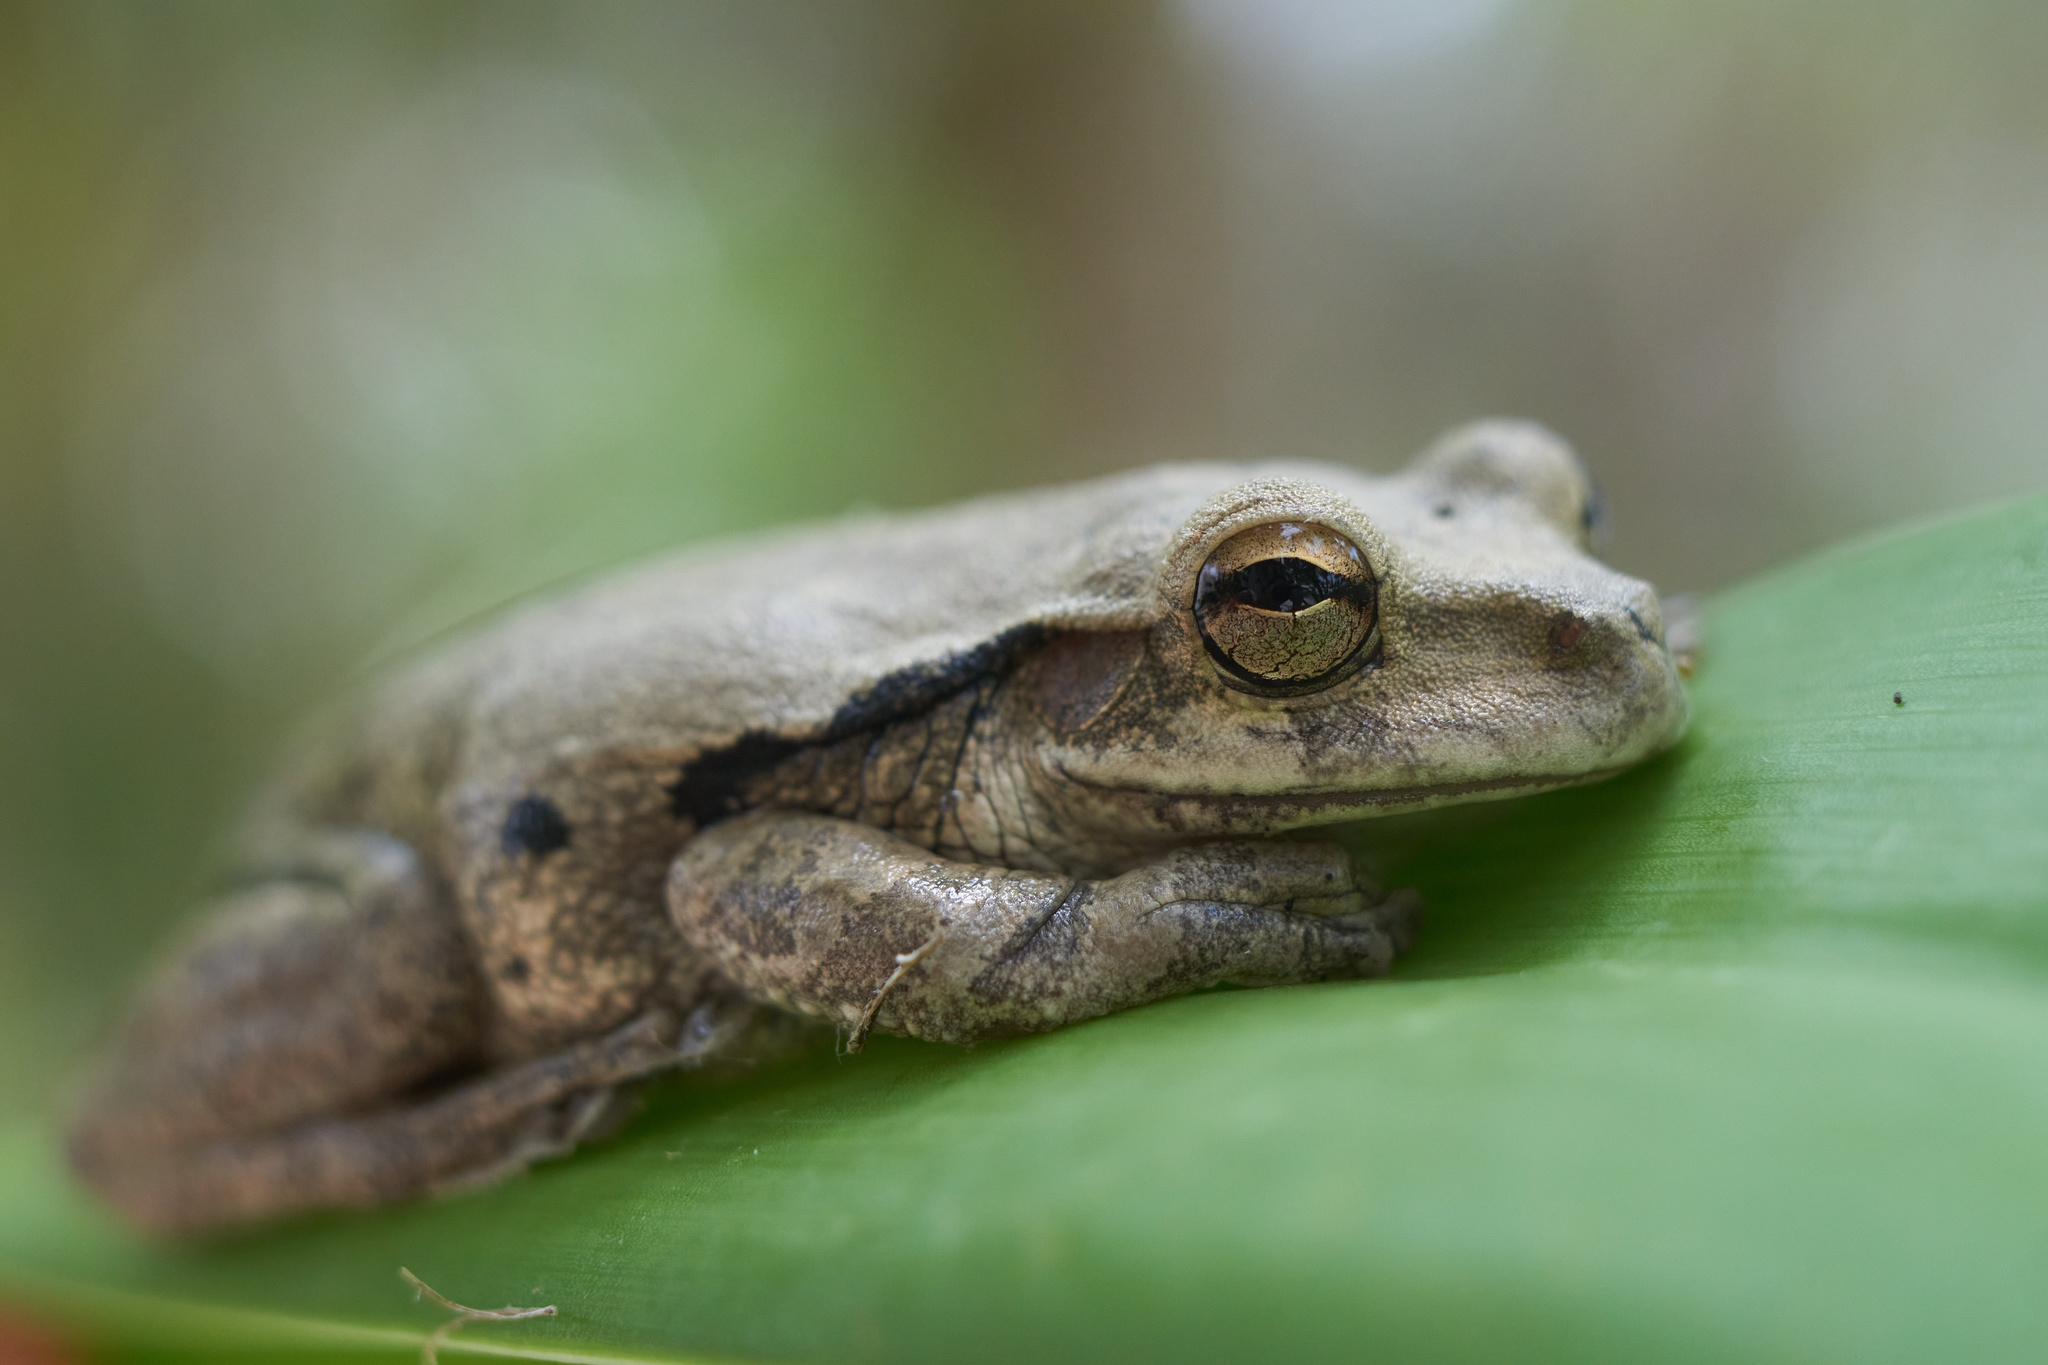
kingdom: Animalia
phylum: Chordata
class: Amphibia
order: Anura
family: Hylidae
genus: Smilisca
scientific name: Smilisca baudinii
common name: Mexican smilisca
